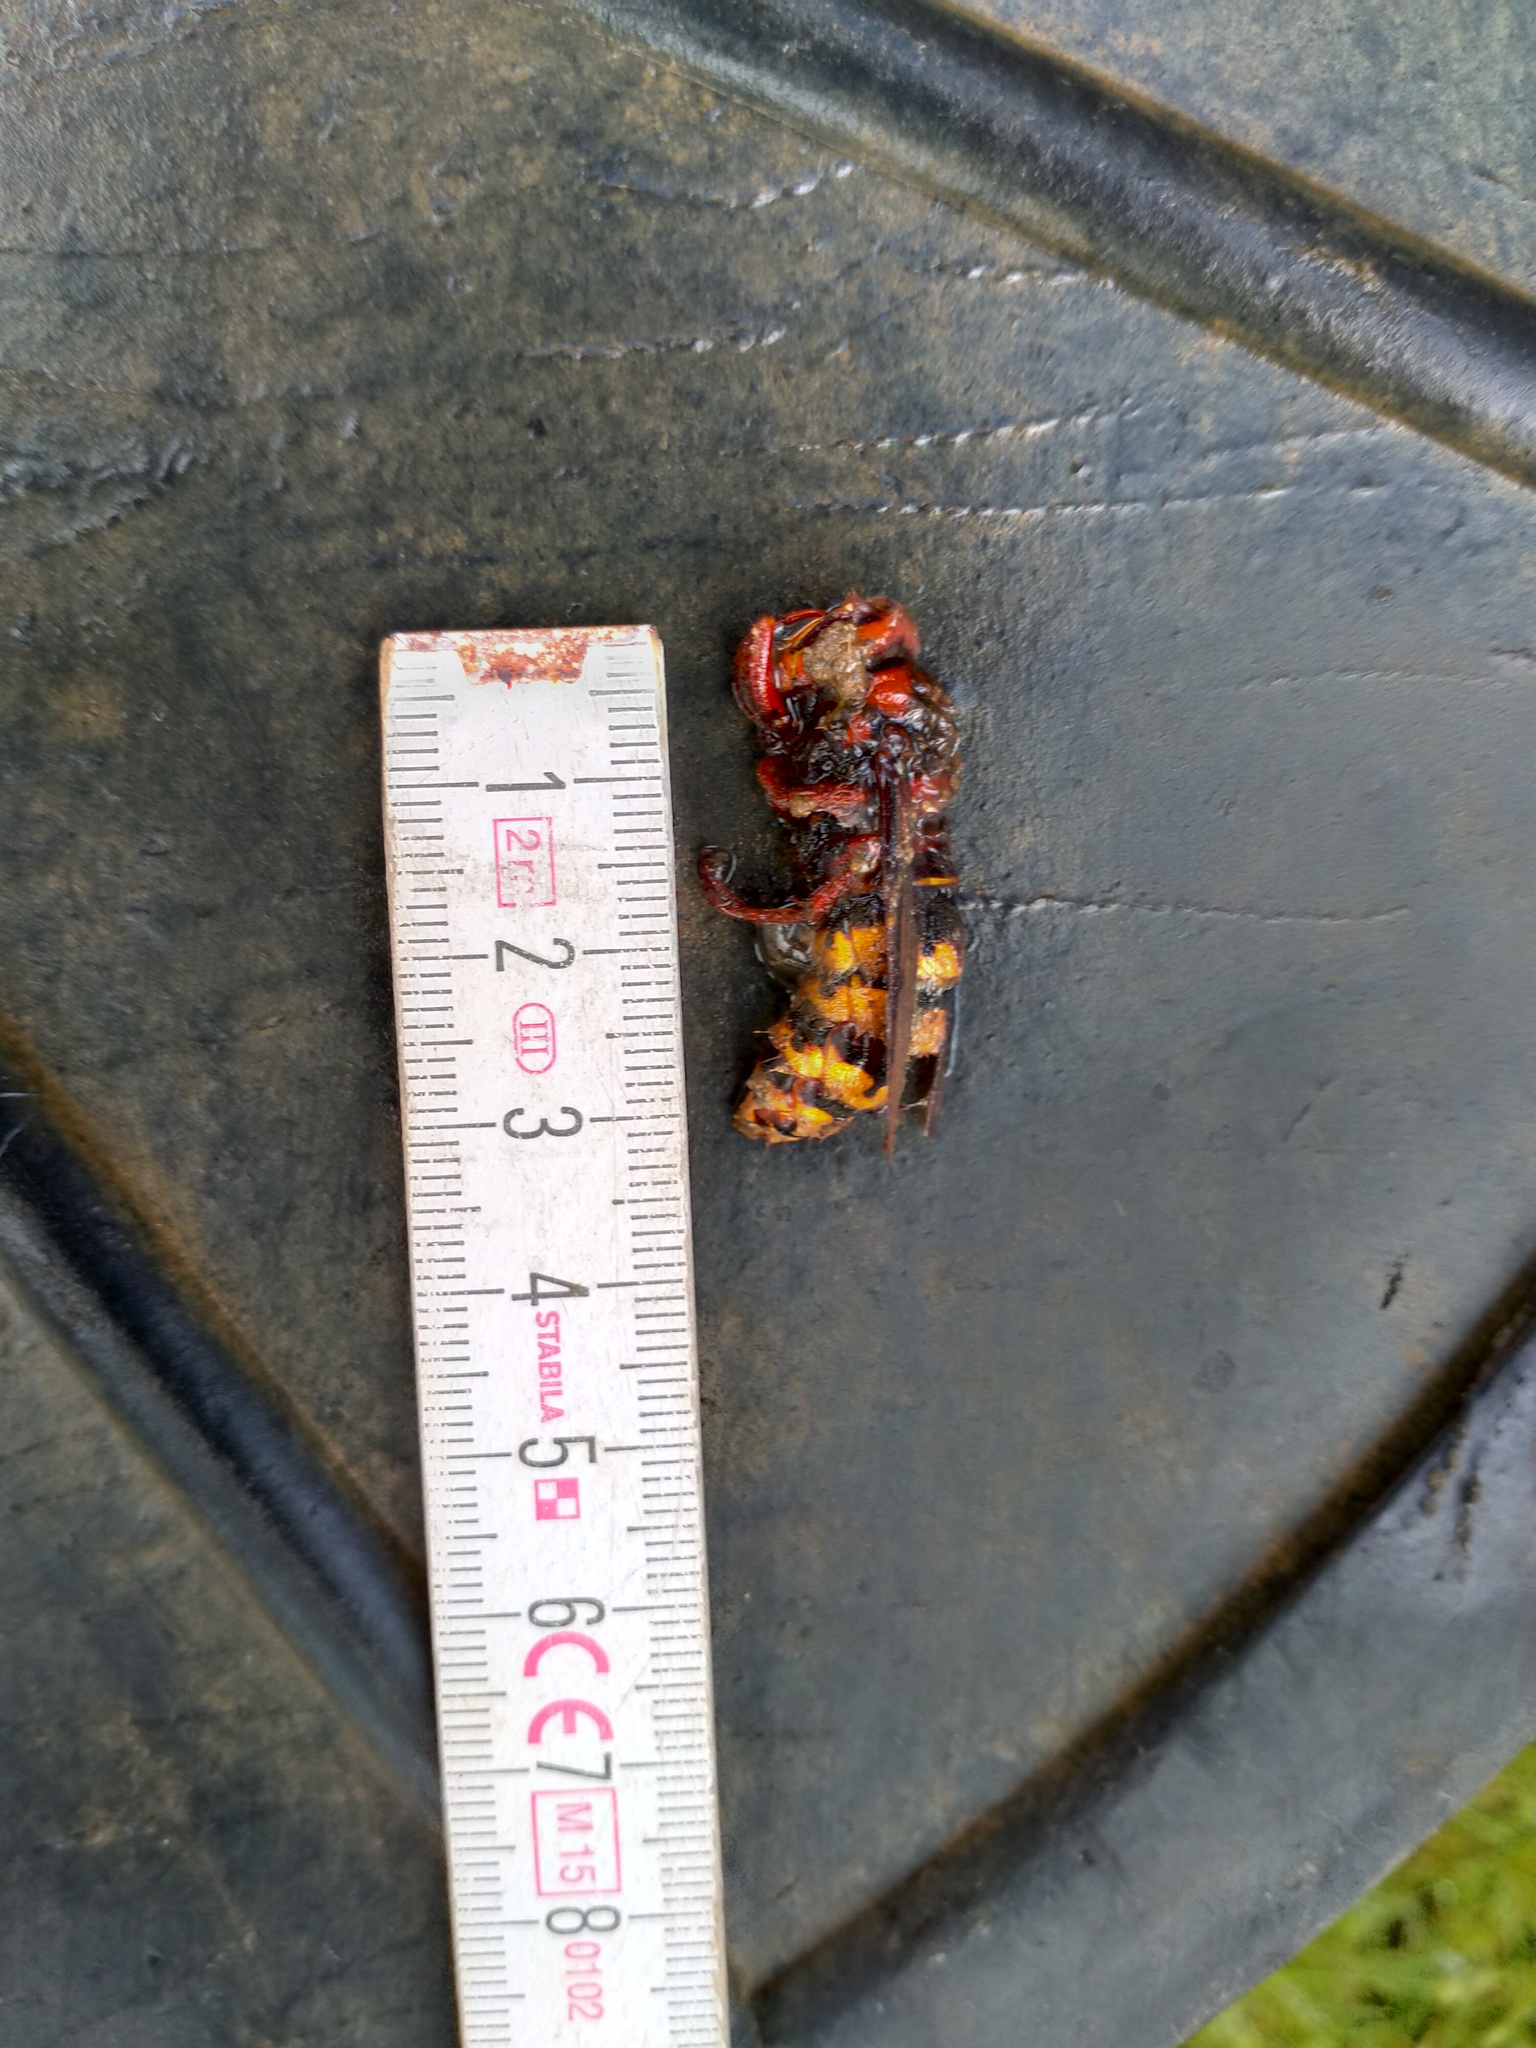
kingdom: Animalia
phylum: Arthropoda
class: Insecta
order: Hymenoptera
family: Vespidae
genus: Vespa
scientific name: Vespa crabro
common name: Hornet
